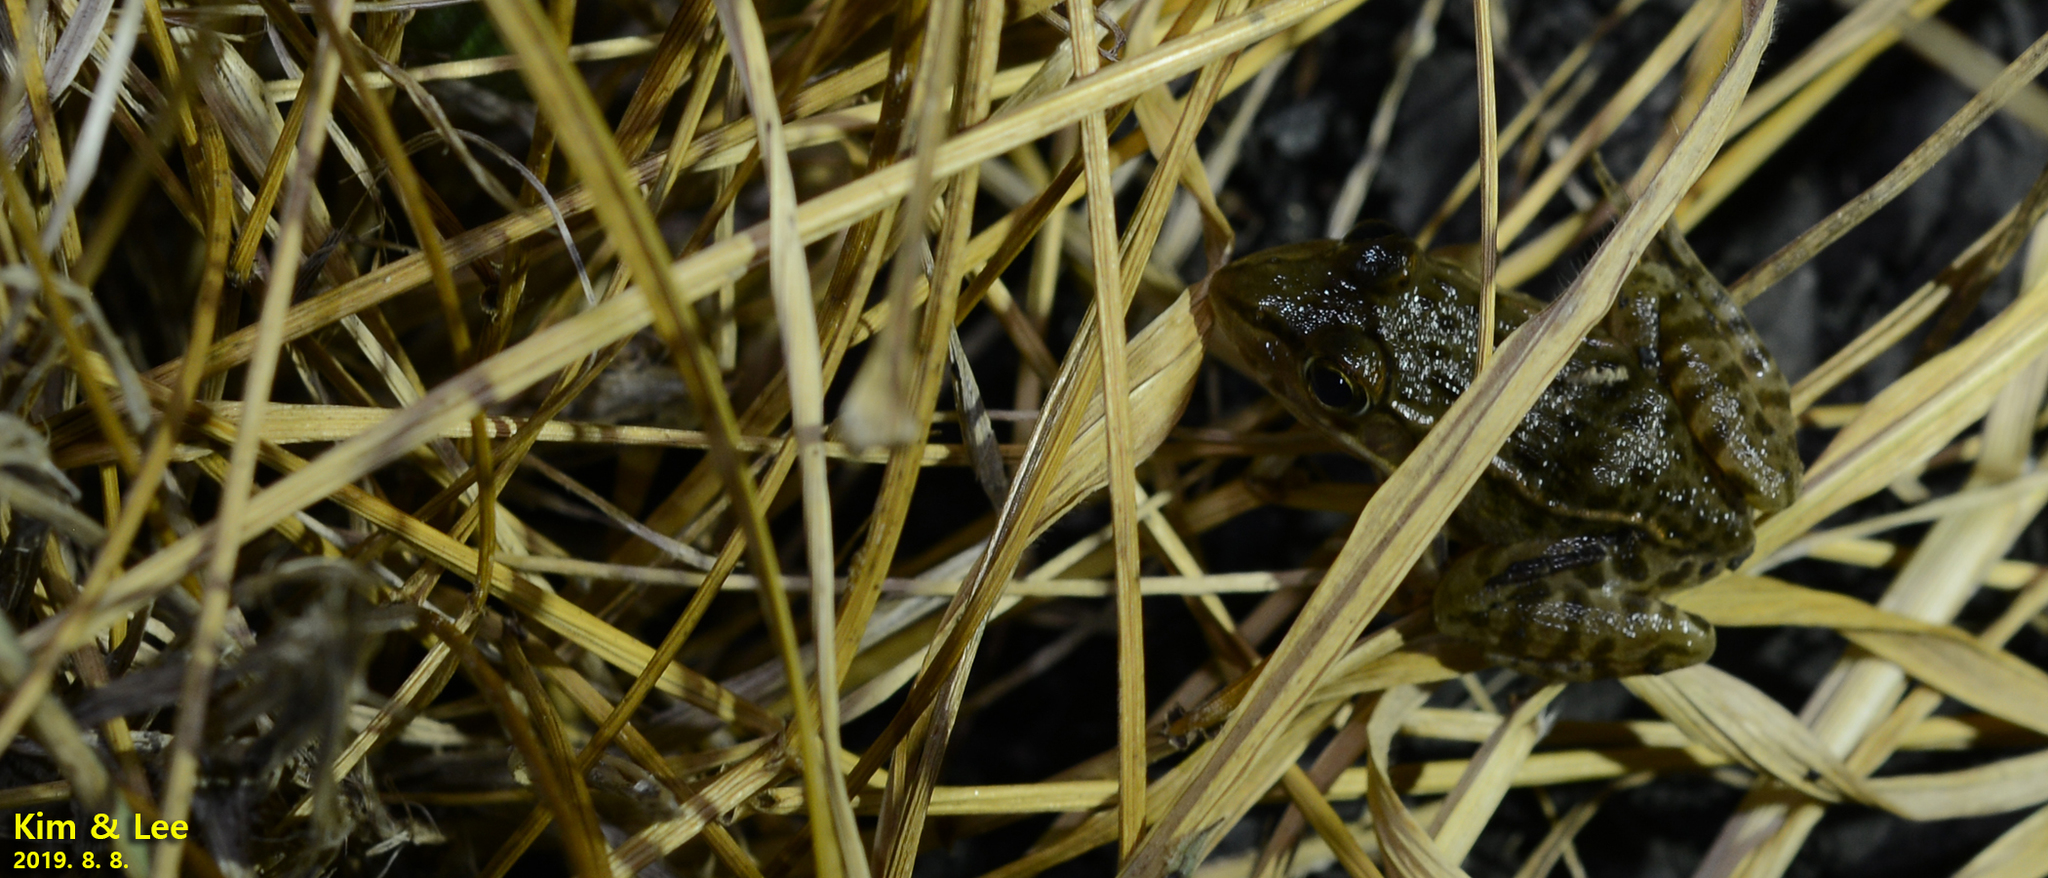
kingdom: Animalia
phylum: Chordata
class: Amphibia
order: Anura
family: Ranidae
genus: Pelophylax
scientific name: Pelophylax nigromaculatus
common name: Black-spotted pond frog
